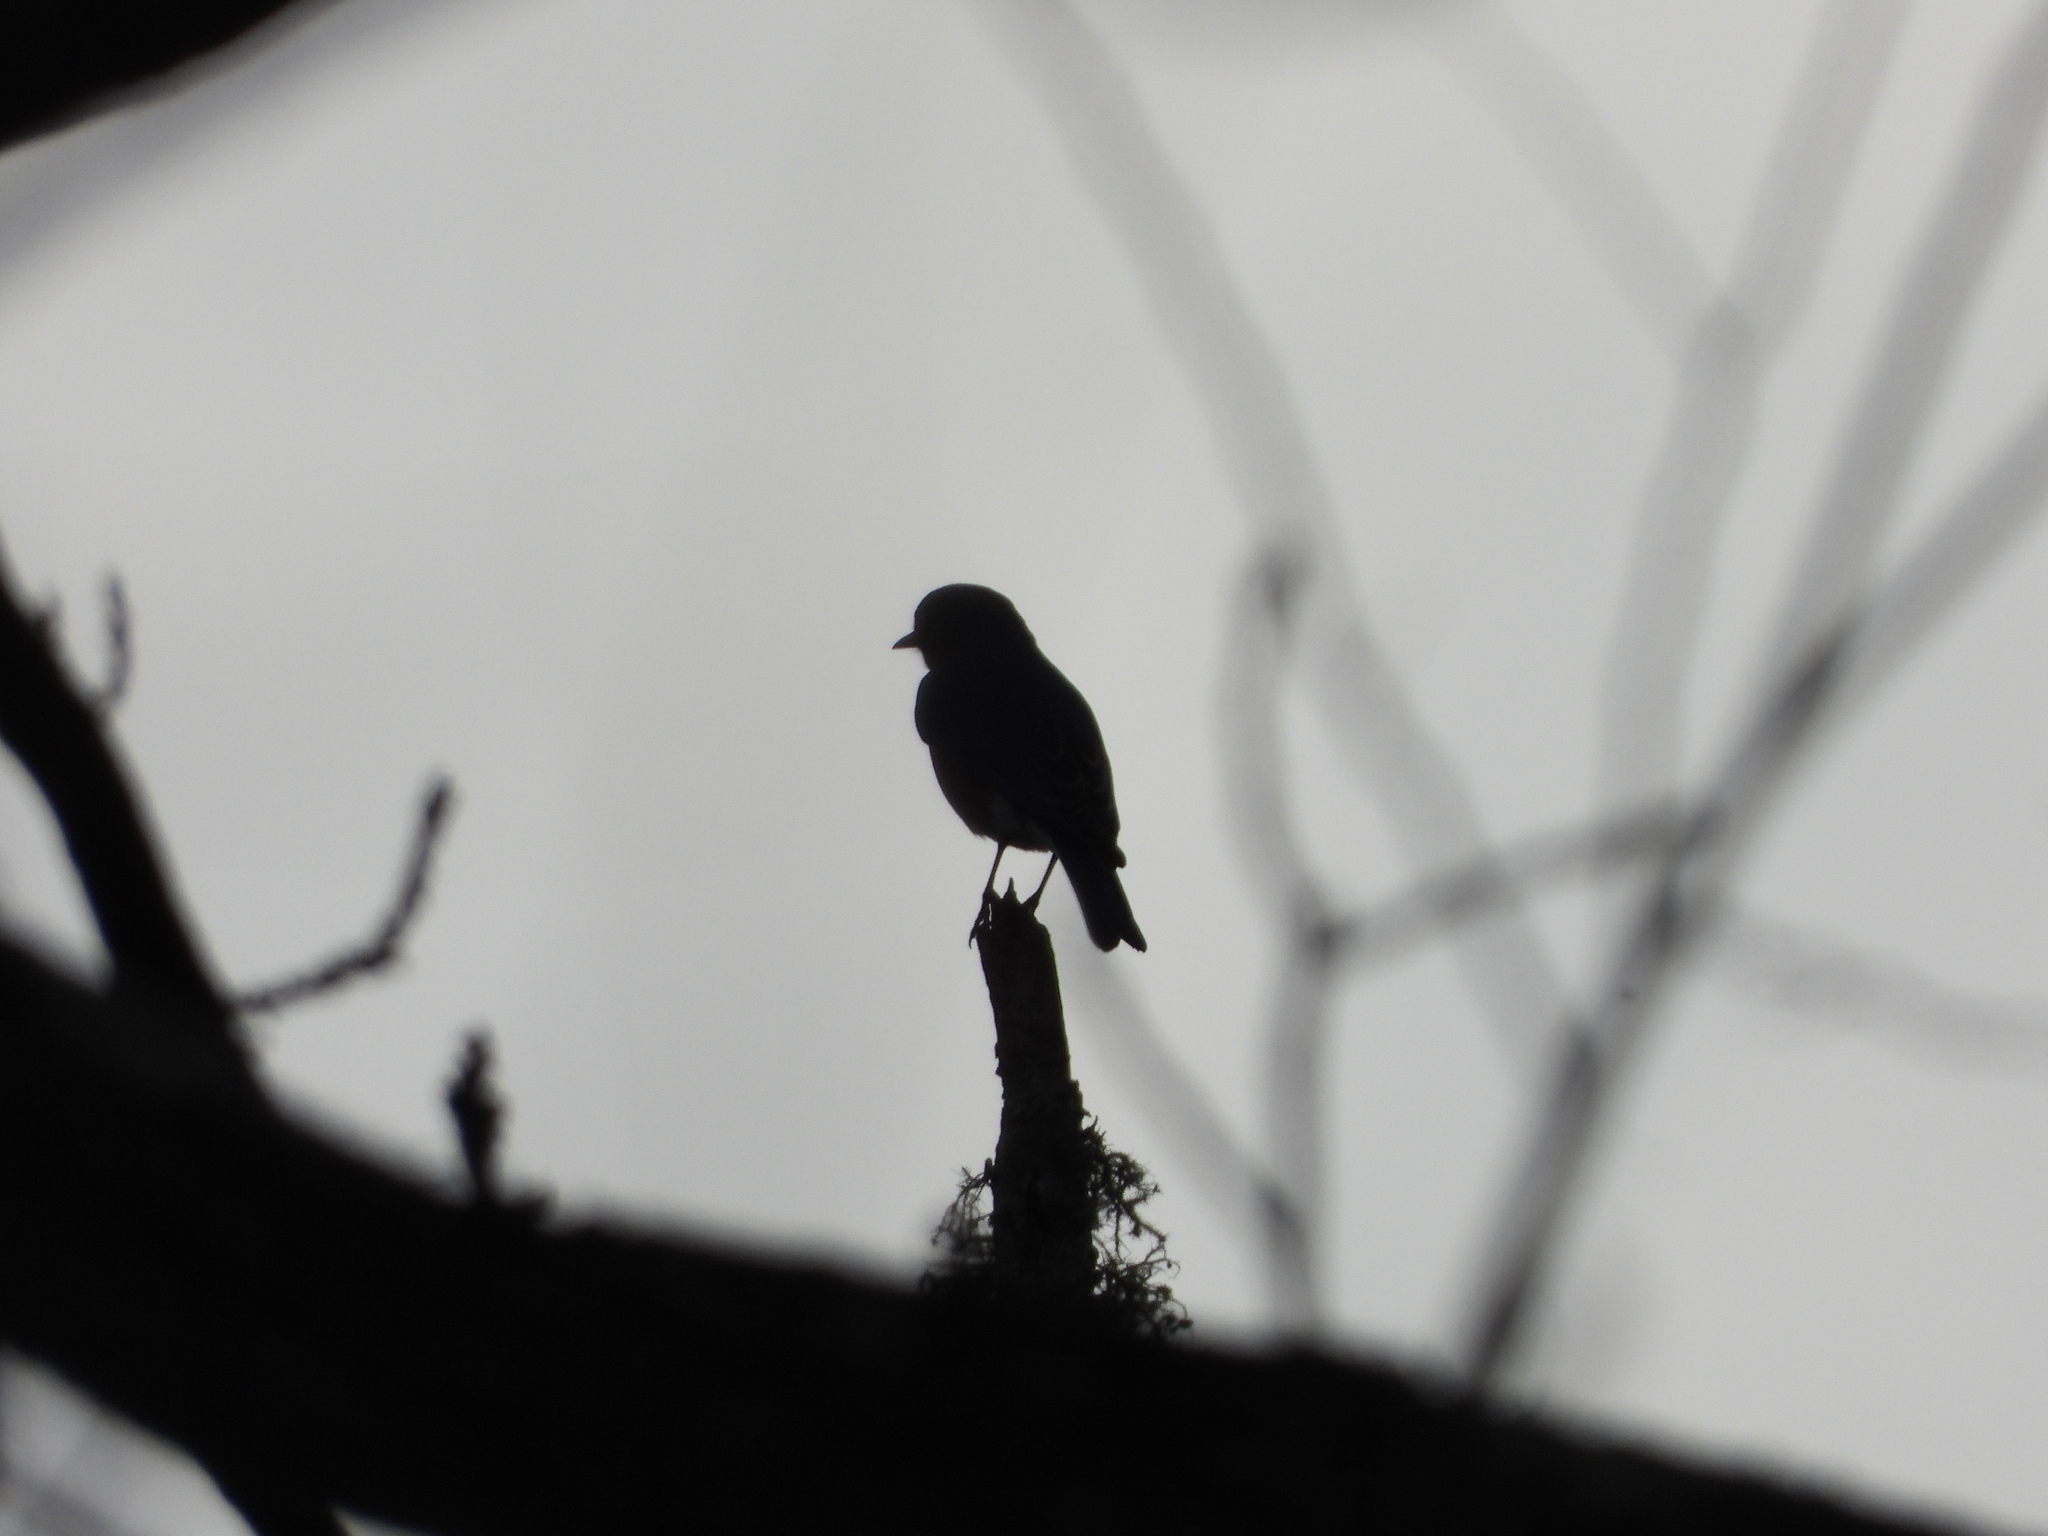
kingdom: Animalia
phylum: Chordata
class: Aves
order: Passeriformes
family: Turdidae
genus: Sialia
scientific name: Sialia sialis
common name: Eastern bluebird
